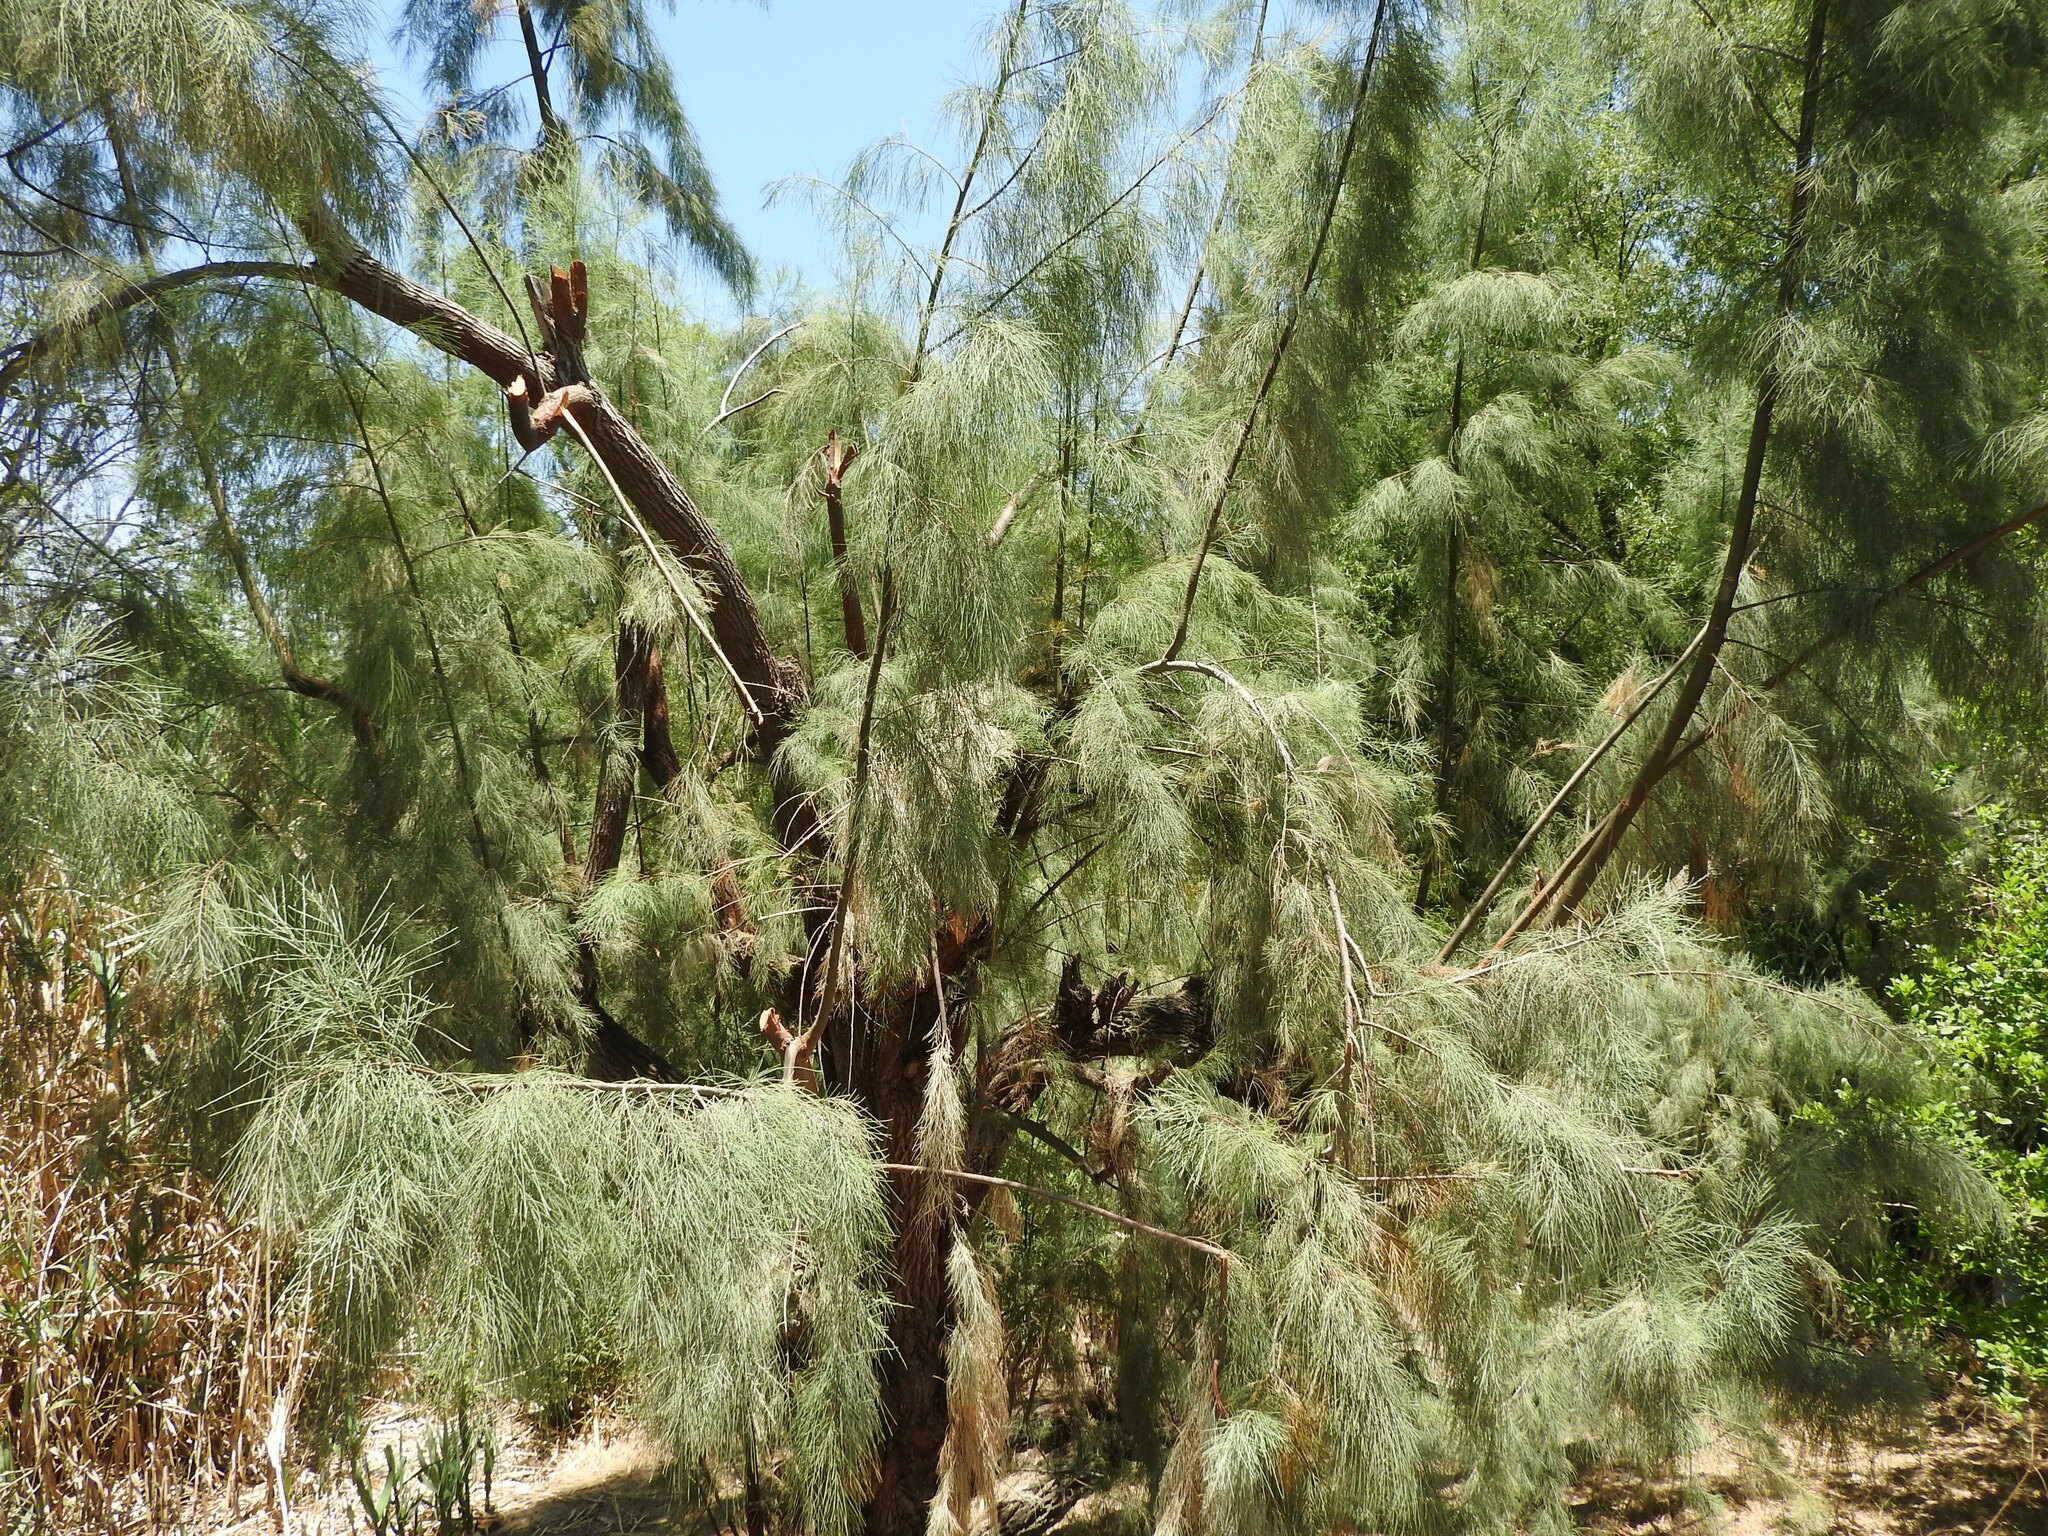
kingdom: Plantae
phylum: Tracheophyta
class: Magnoliopsida
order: Caryophyllales
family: Tamaricaceae
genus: Tamarix
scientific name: Tamarix ramosissima
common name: Pink tamarisk
